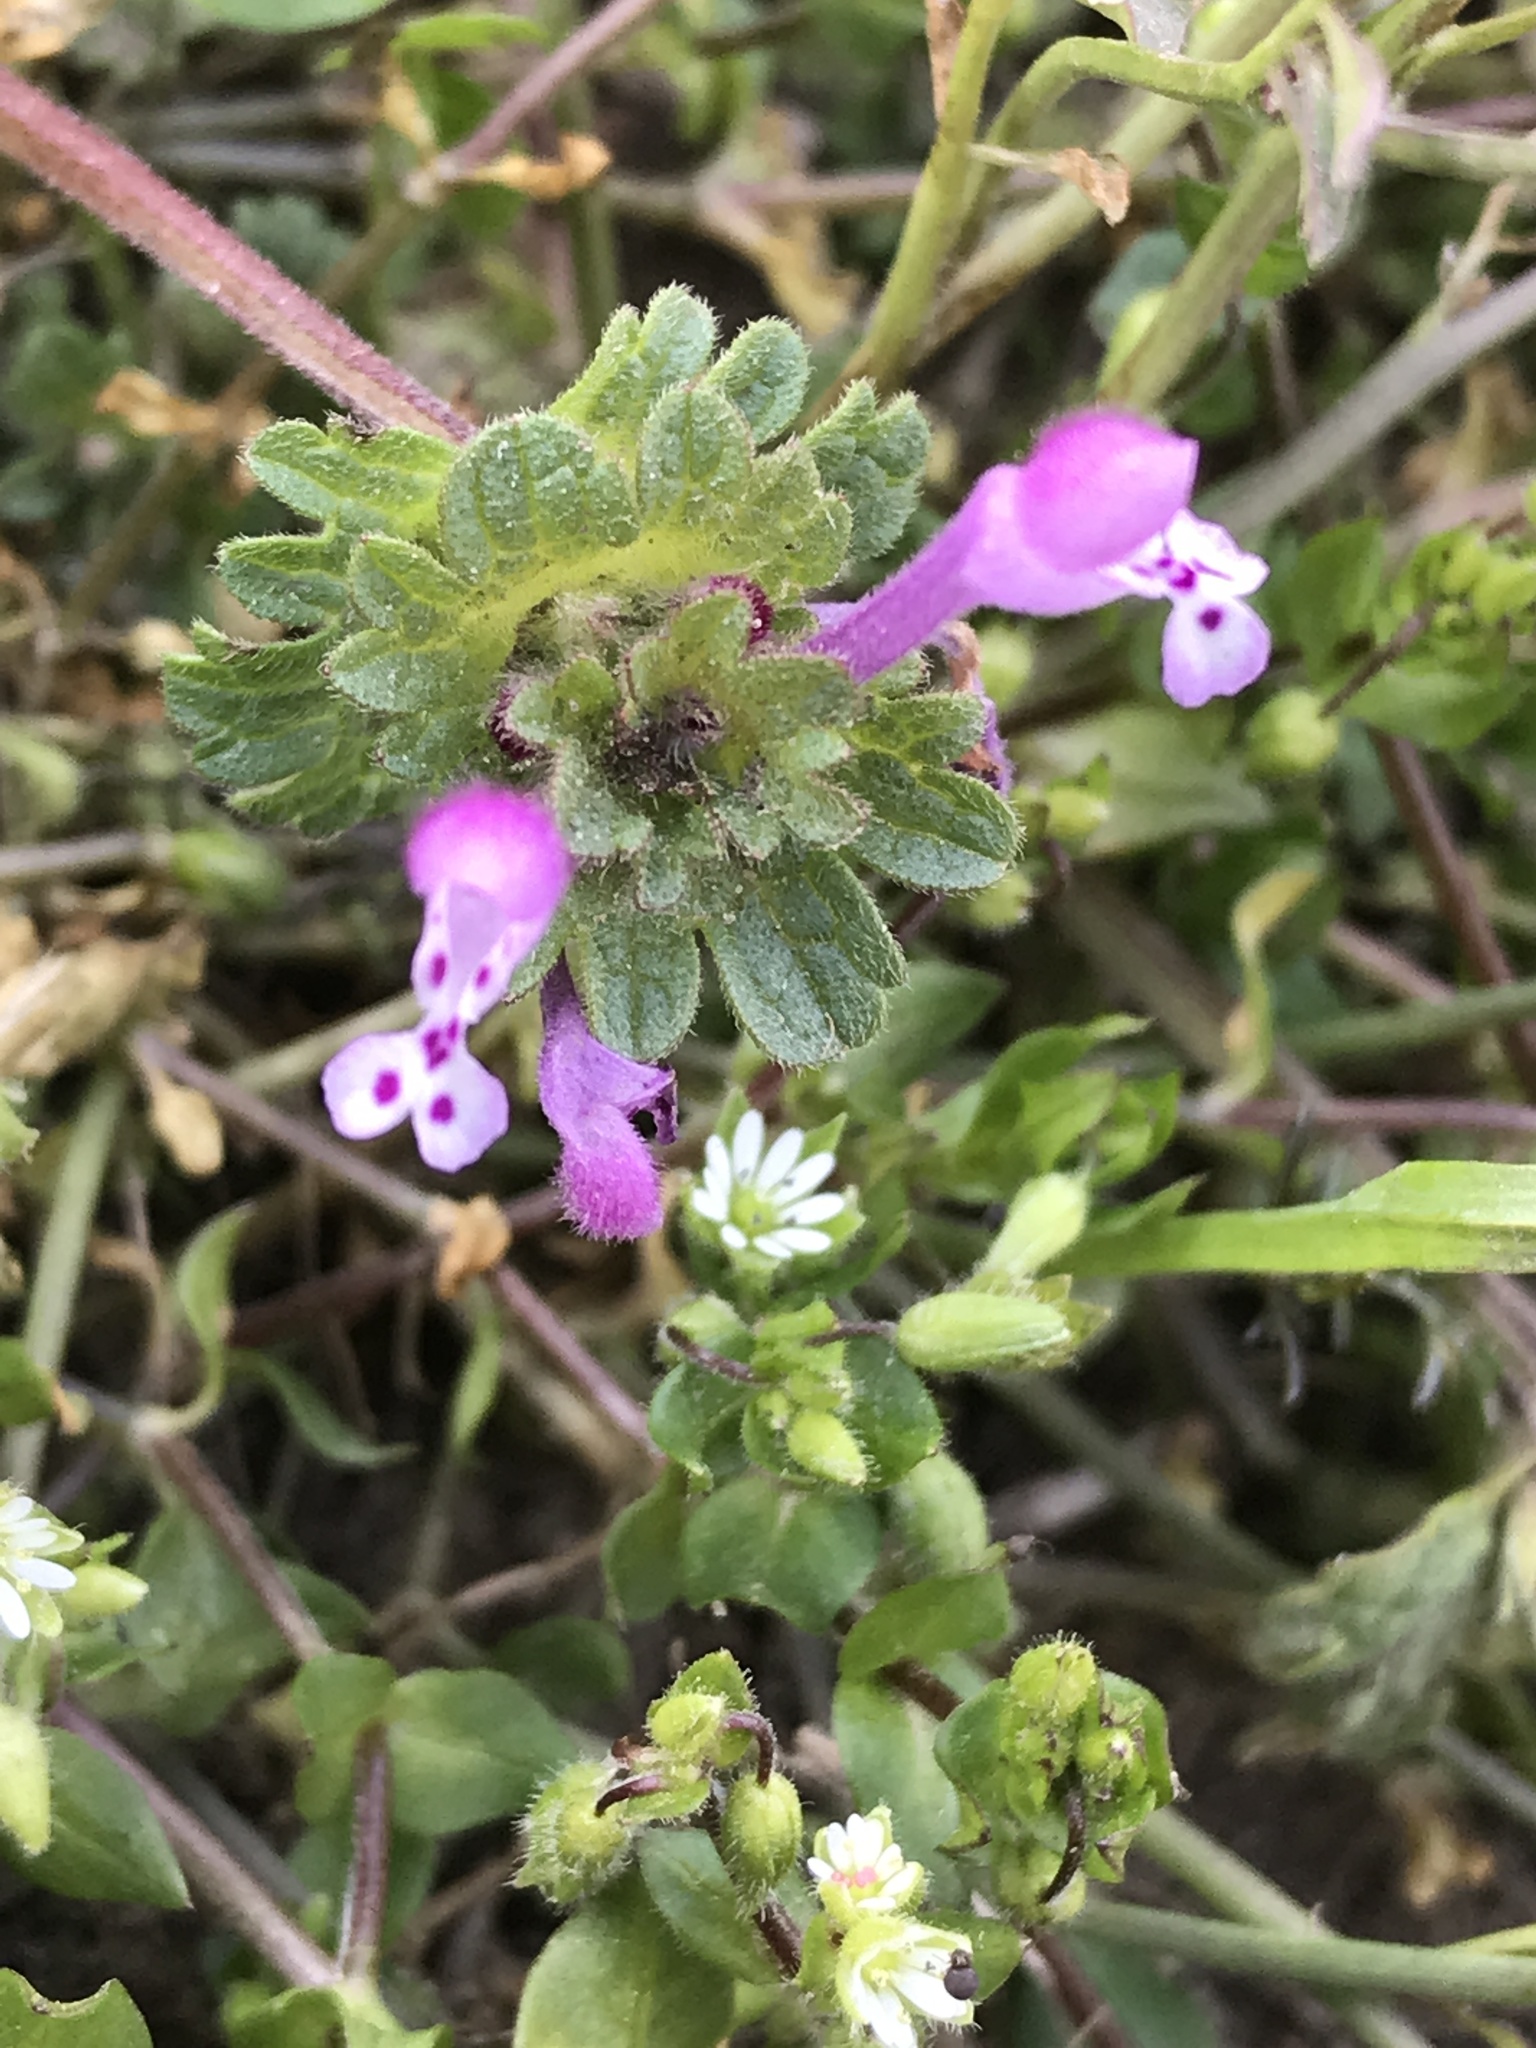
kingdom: Plantae
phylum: Tracheophyta
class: Magnoliopsida
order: Lamiales
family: Lamiaceae
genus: Lamium
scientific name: Lamium amplexicaule
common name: Henbit dead-nettle
